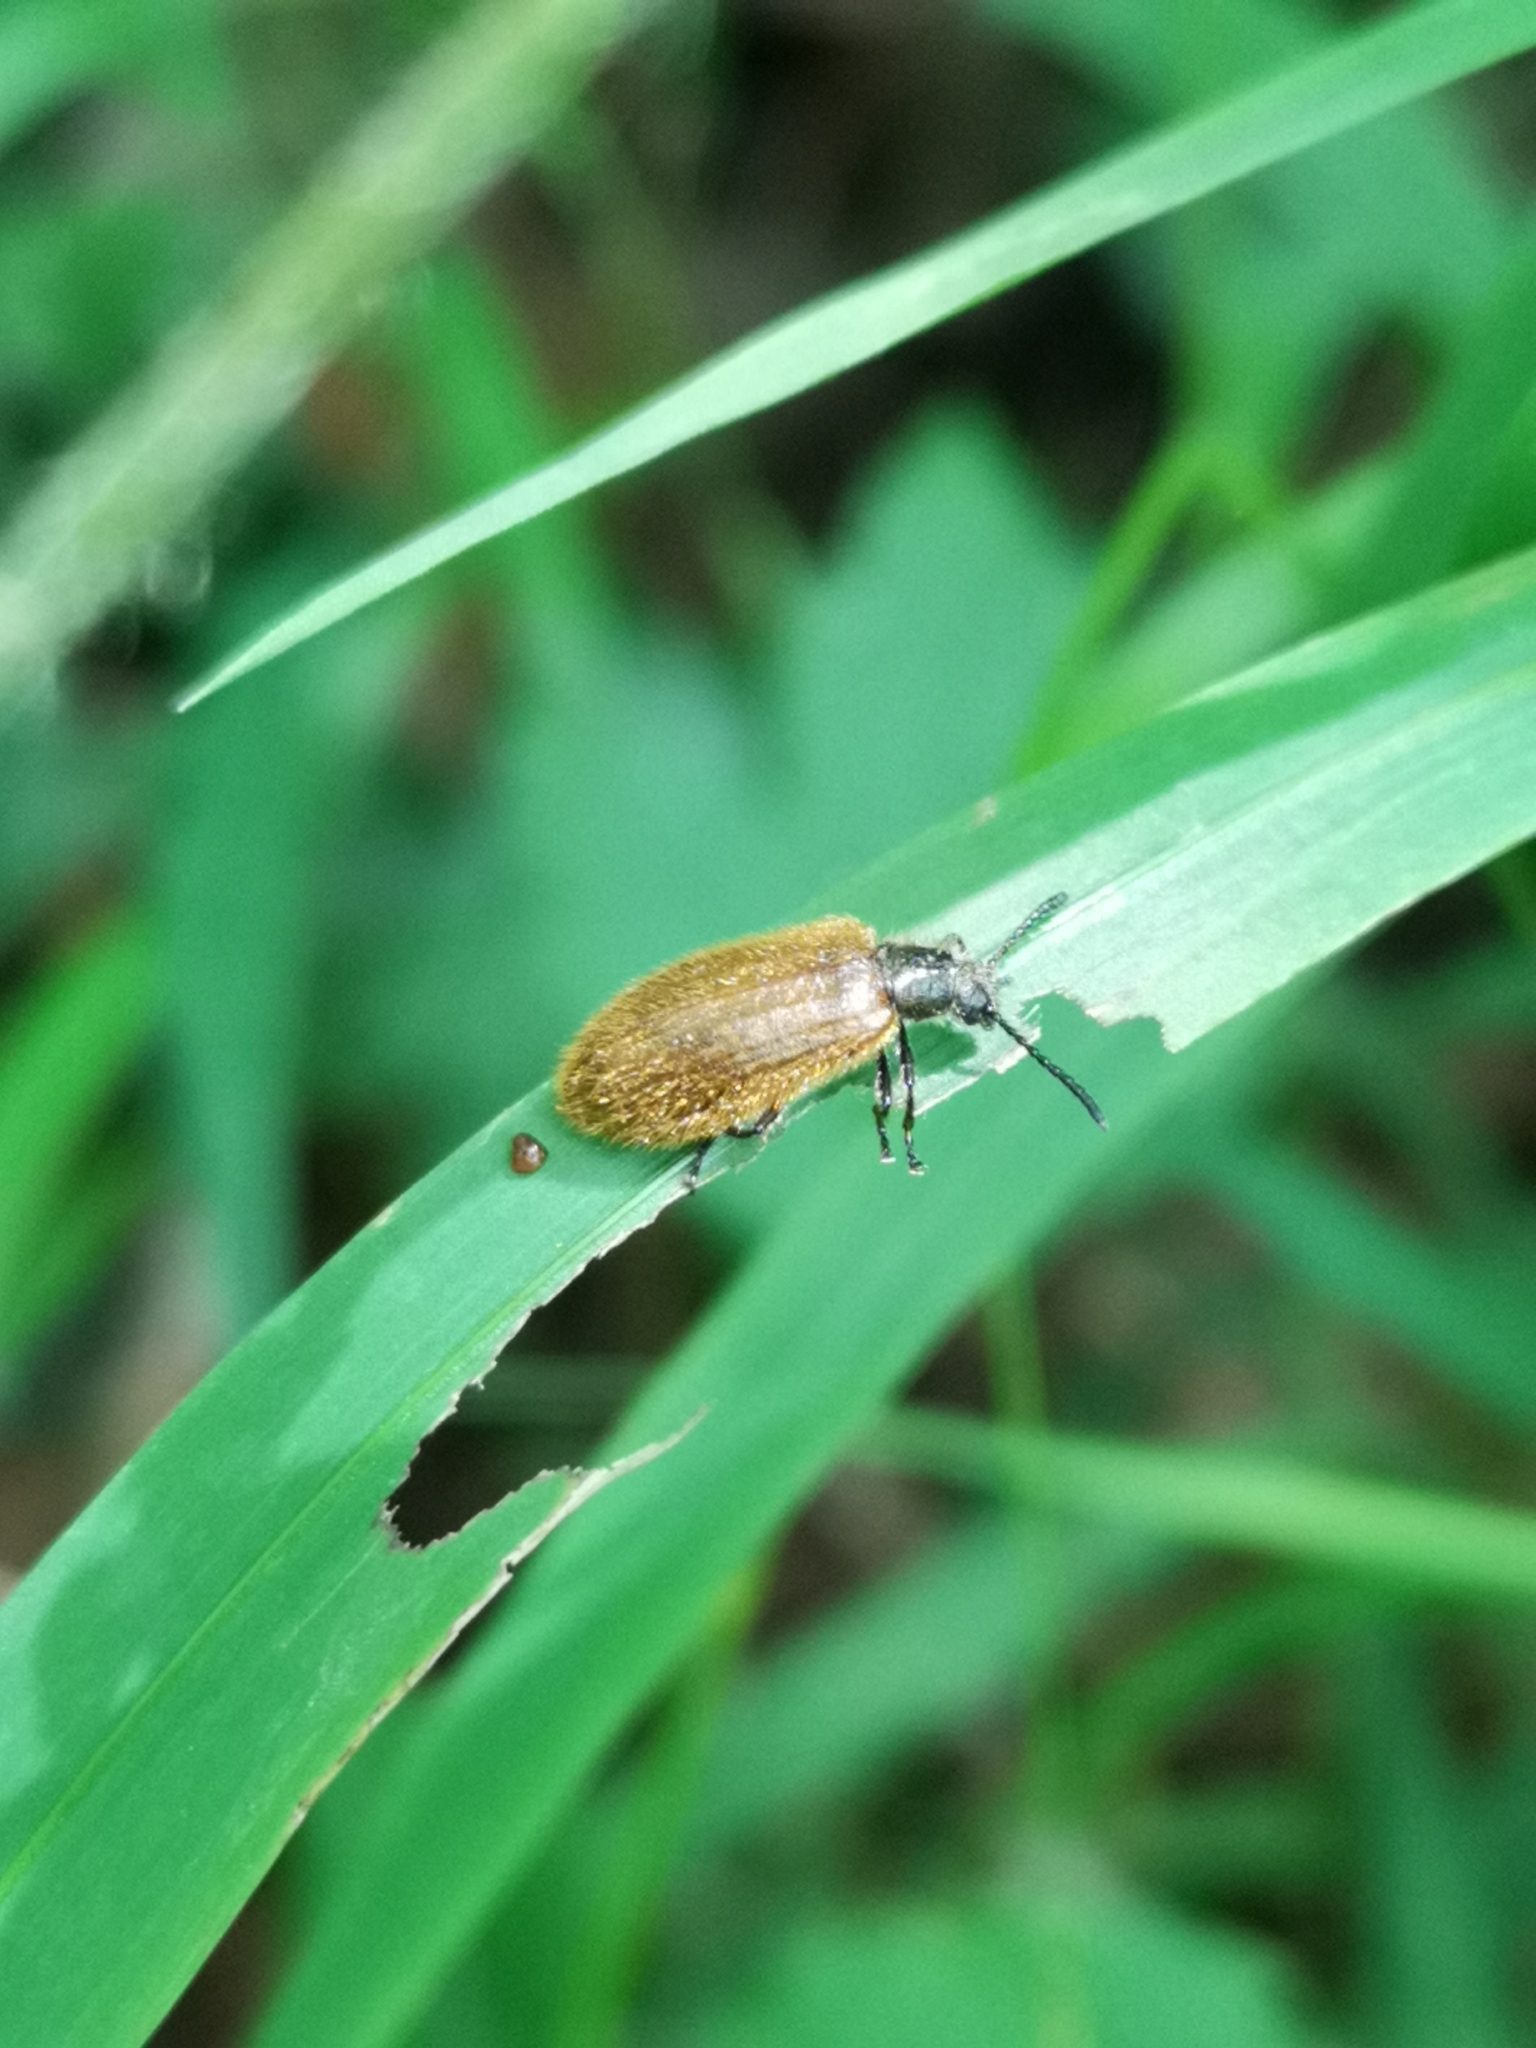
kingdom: Animalia
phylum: Arthropoda
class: Insecta
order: Coleoptera
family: Tenebrionidae
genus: Lagria
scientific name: Lagria hirta
